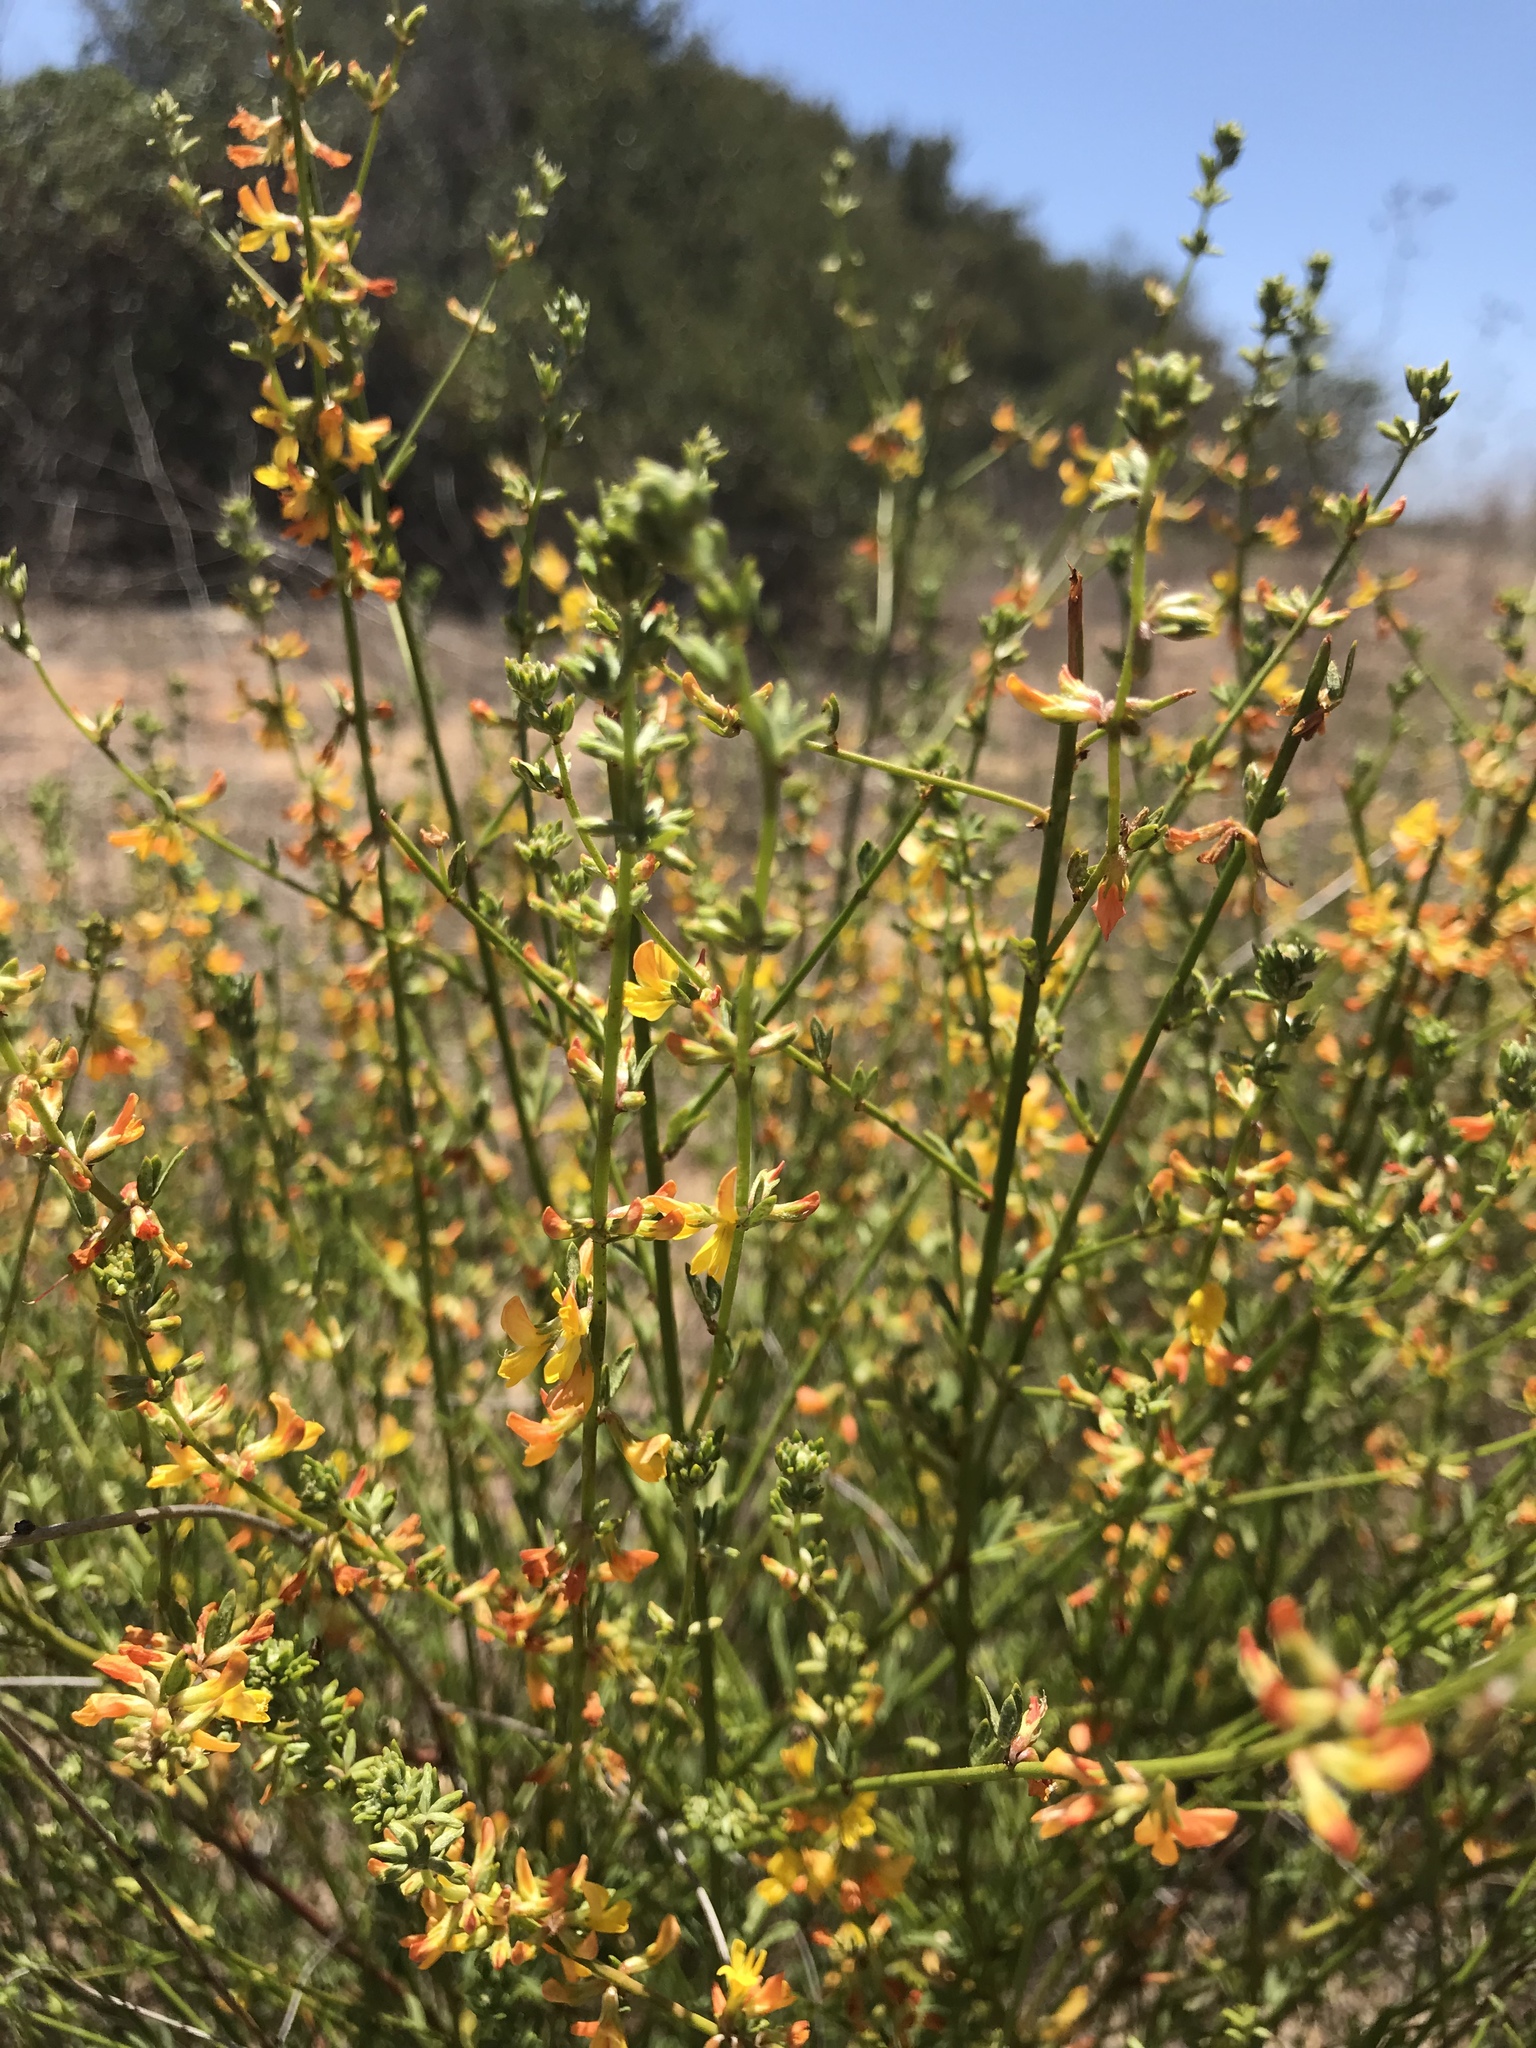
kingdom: Plantae
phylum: Tracheophyta
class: Magnoliopsida
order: Fabales
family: Fabaceae
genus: Acmispon
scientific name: Acmispon glaber
